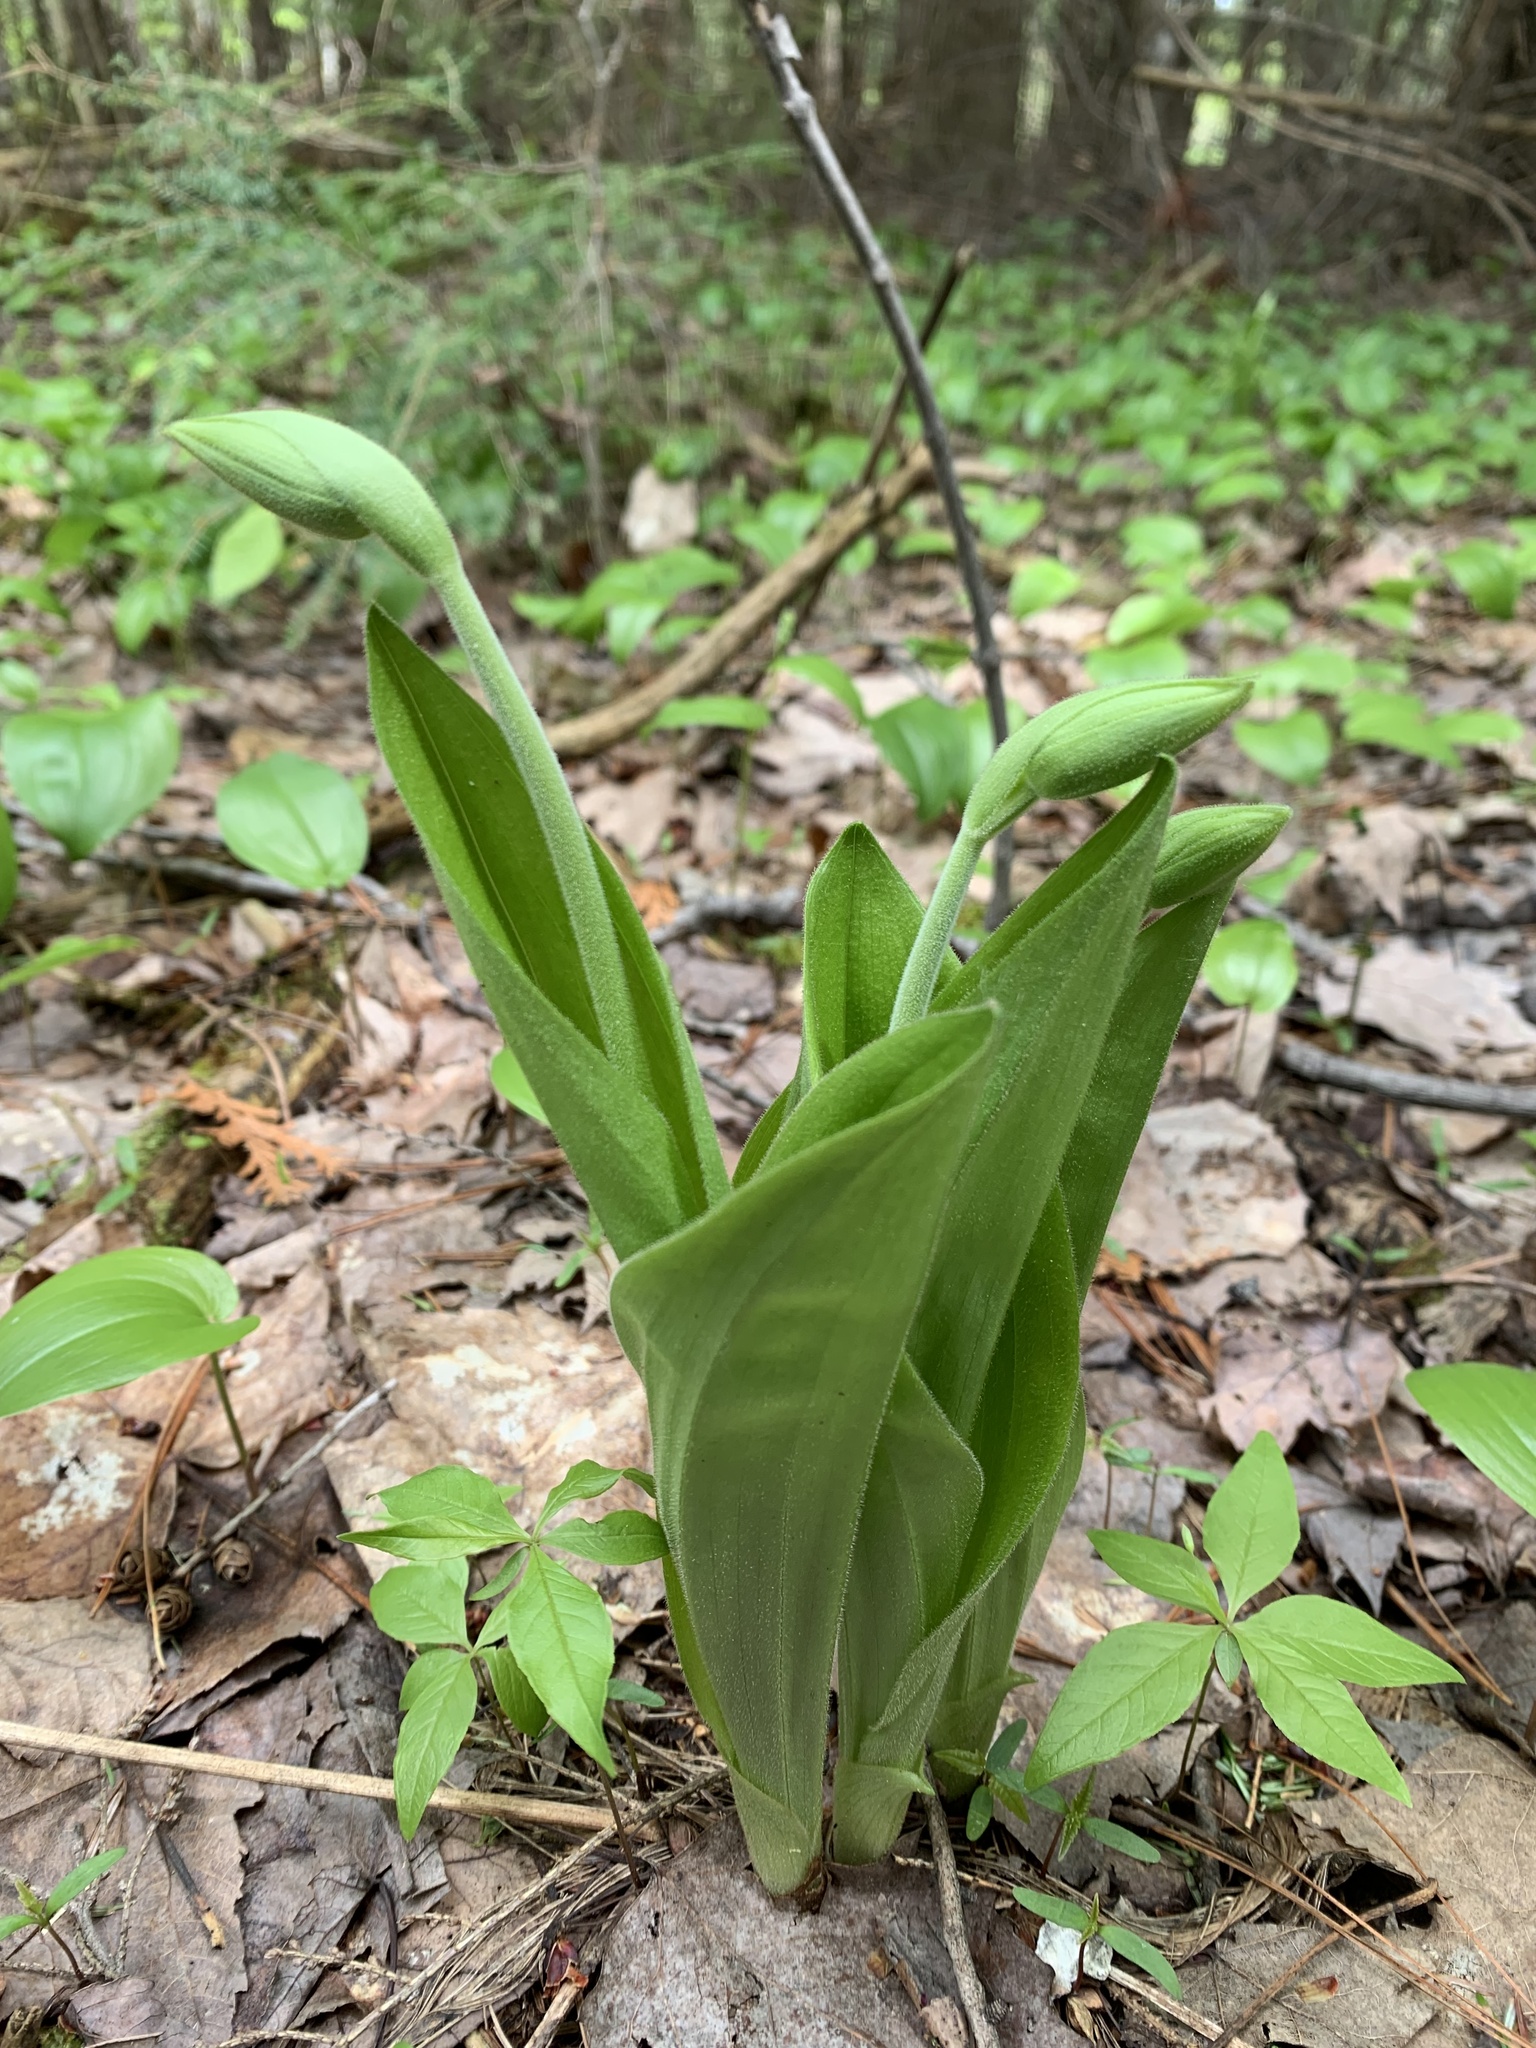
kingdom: Plantae
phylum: Tracheophyta
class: Liliopsida
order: Asparagales
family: Orchidaceae
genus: Cypripedium
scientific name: Cypripedium acaule
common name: Pink lady's-slipper
